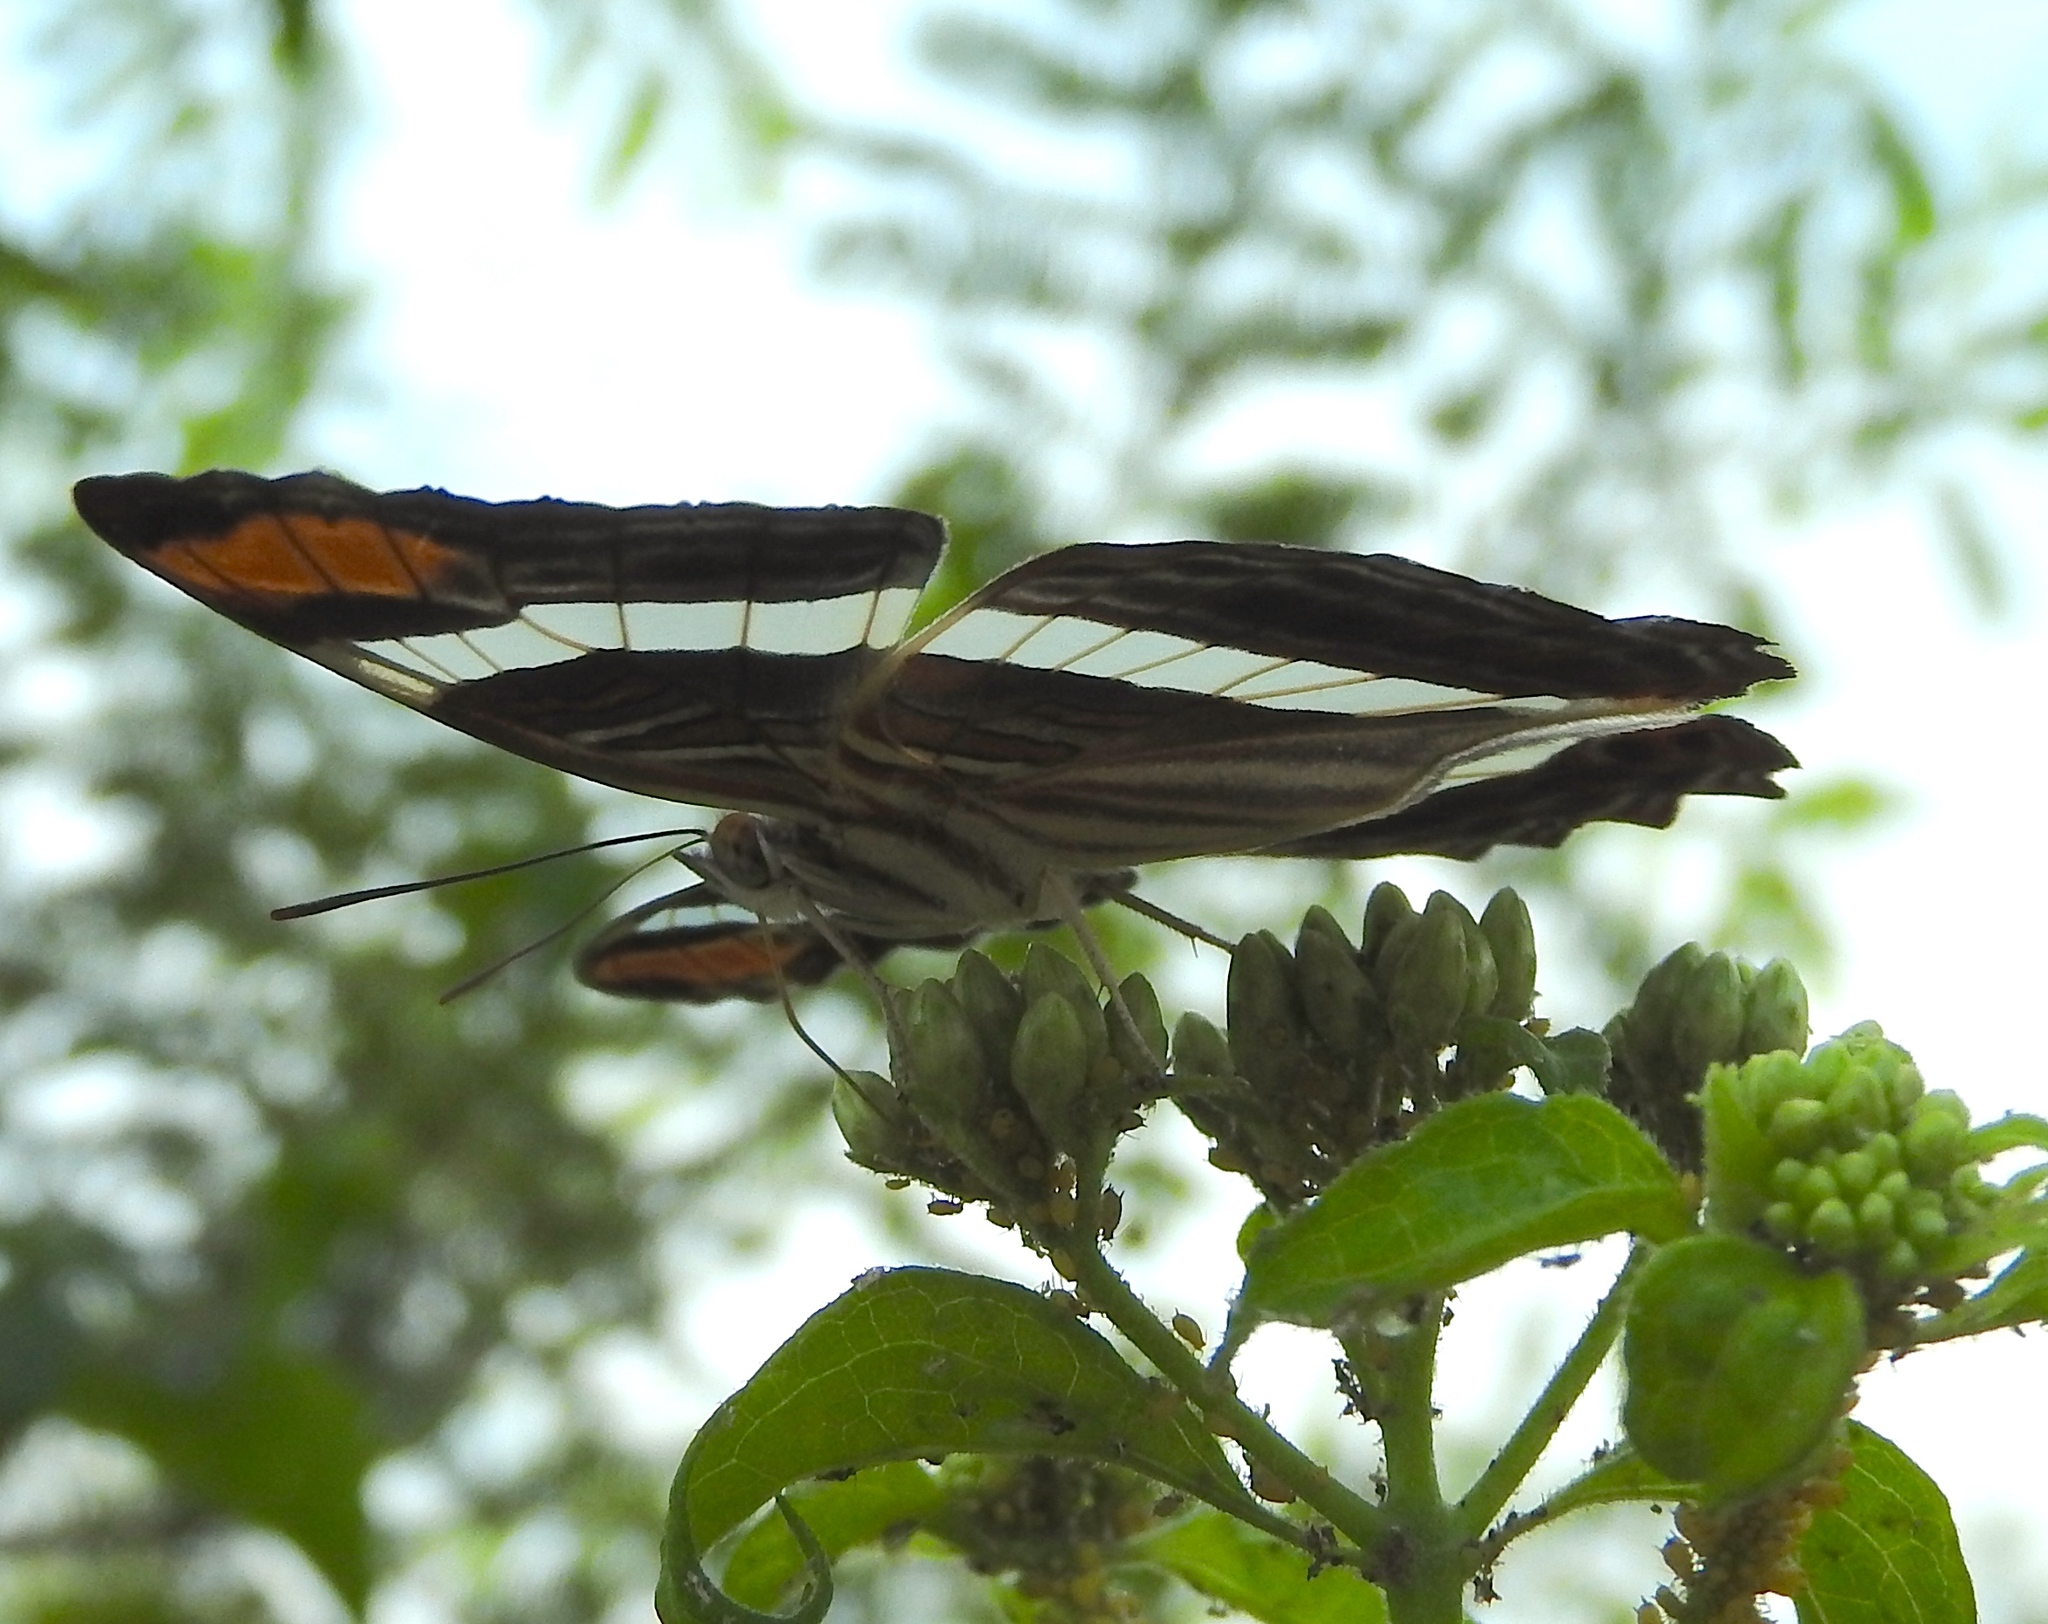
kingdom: Animalia
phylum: Arthropoda
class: Insecta
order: Lepidoptera
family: Nymphalidae
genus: Limenitis
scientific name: Limenitis fessonia
